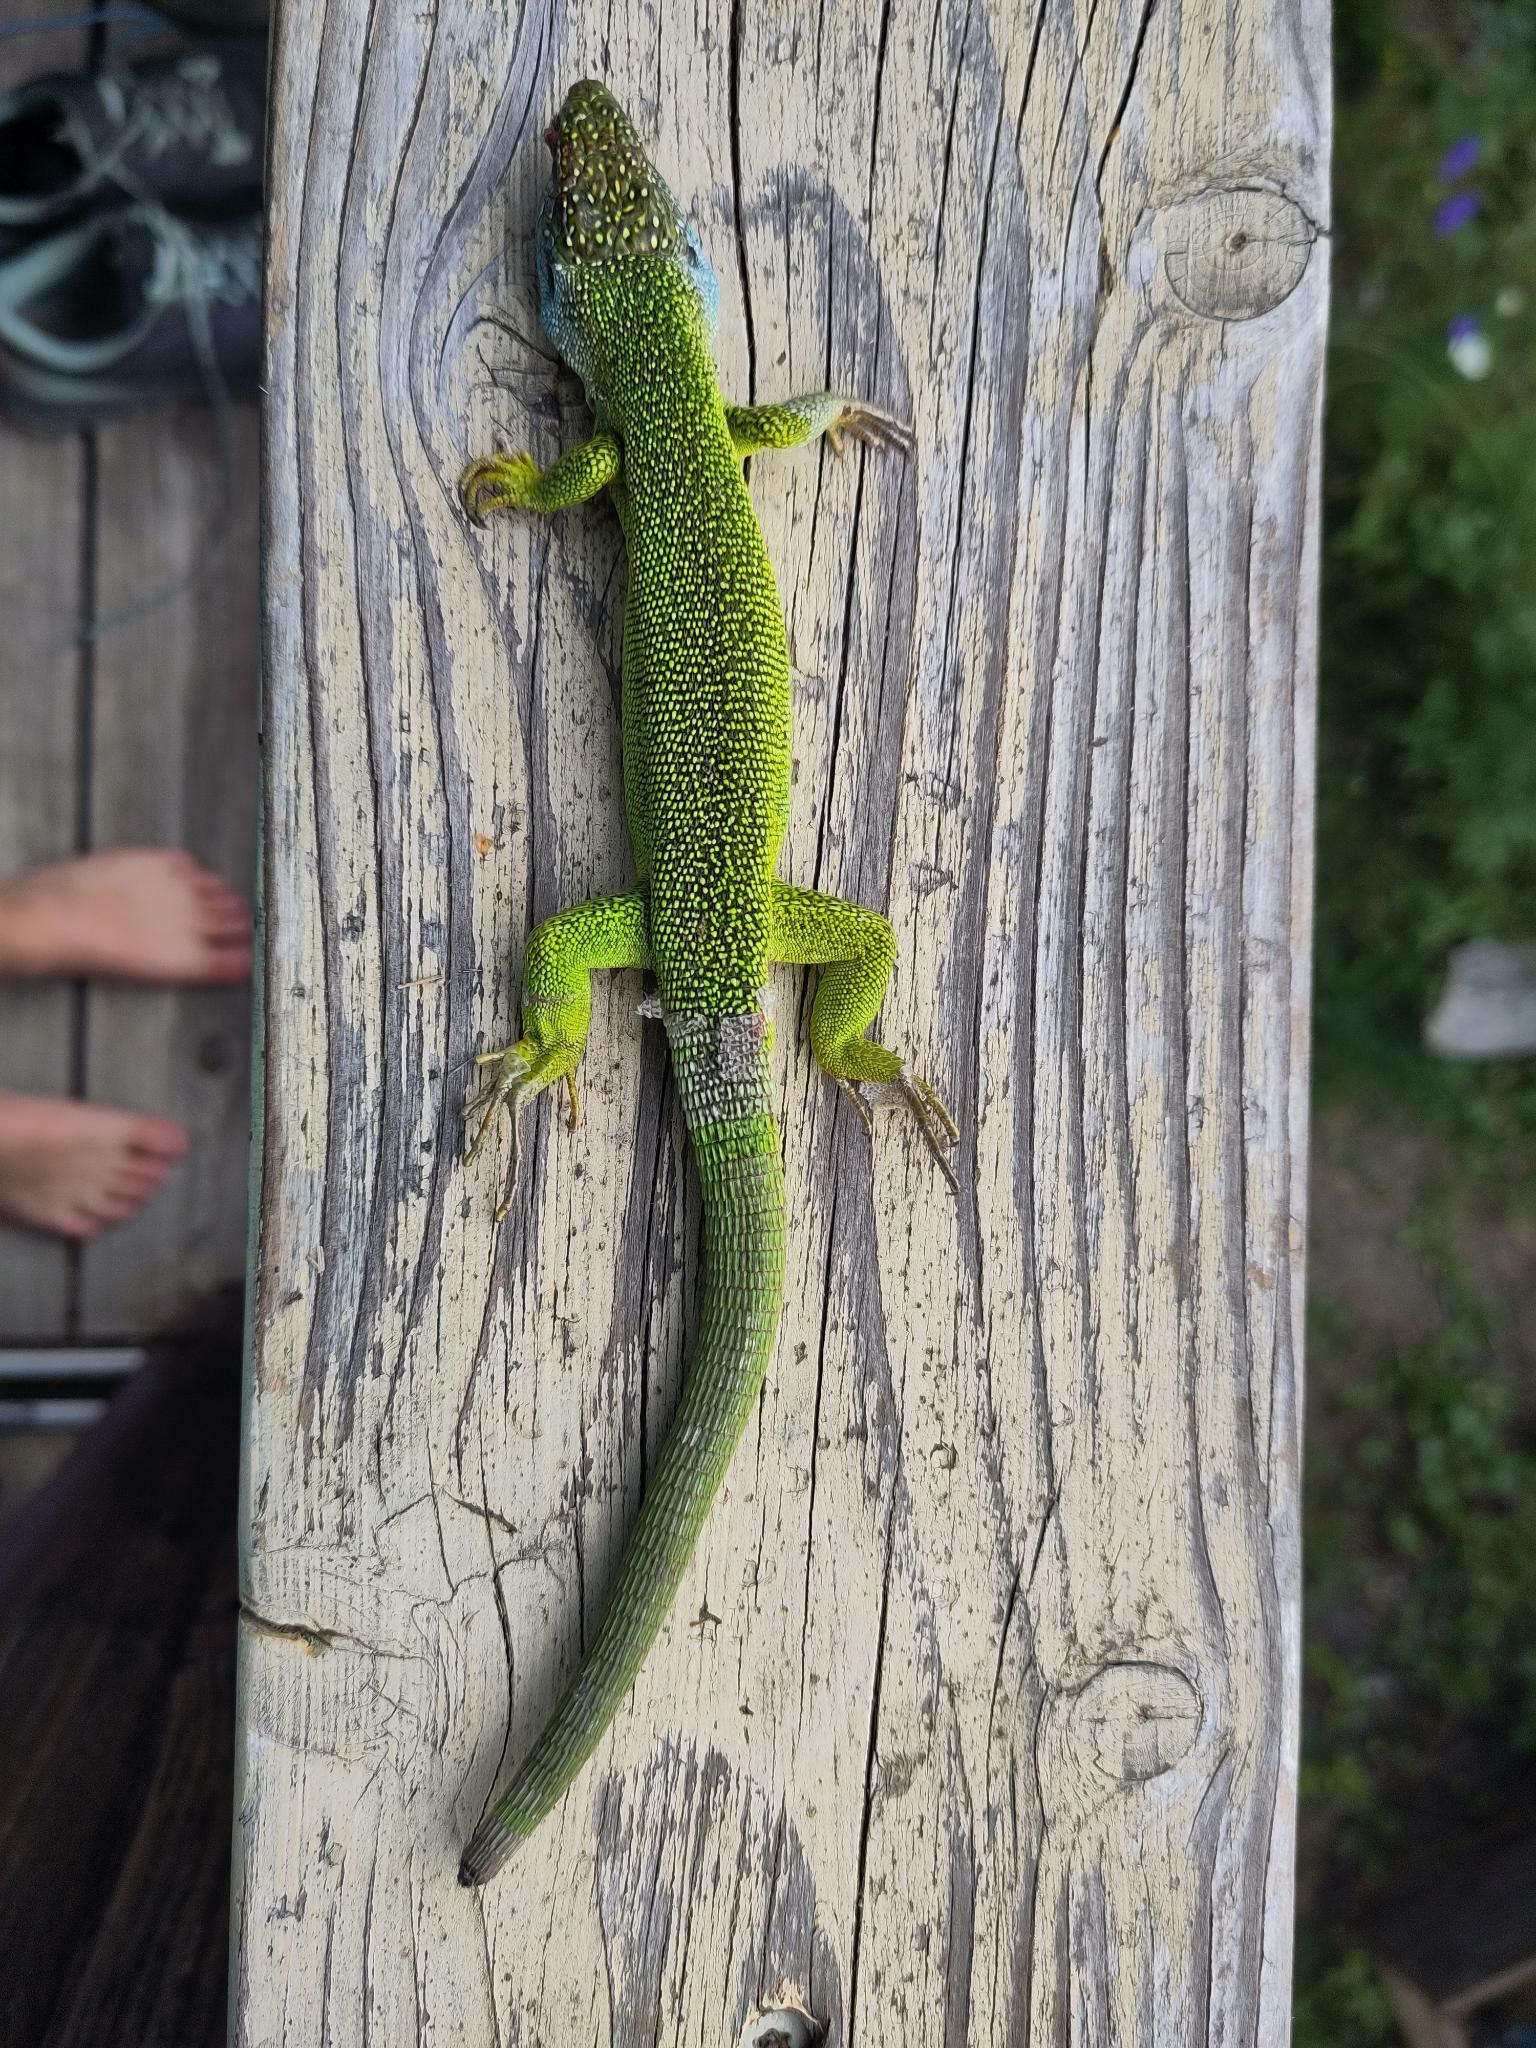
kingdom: Animalia
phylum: Chordata
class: Squamata
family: Lacertidae
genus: Lacerta
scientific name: Lacerta bilineata
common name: Western green lizard
